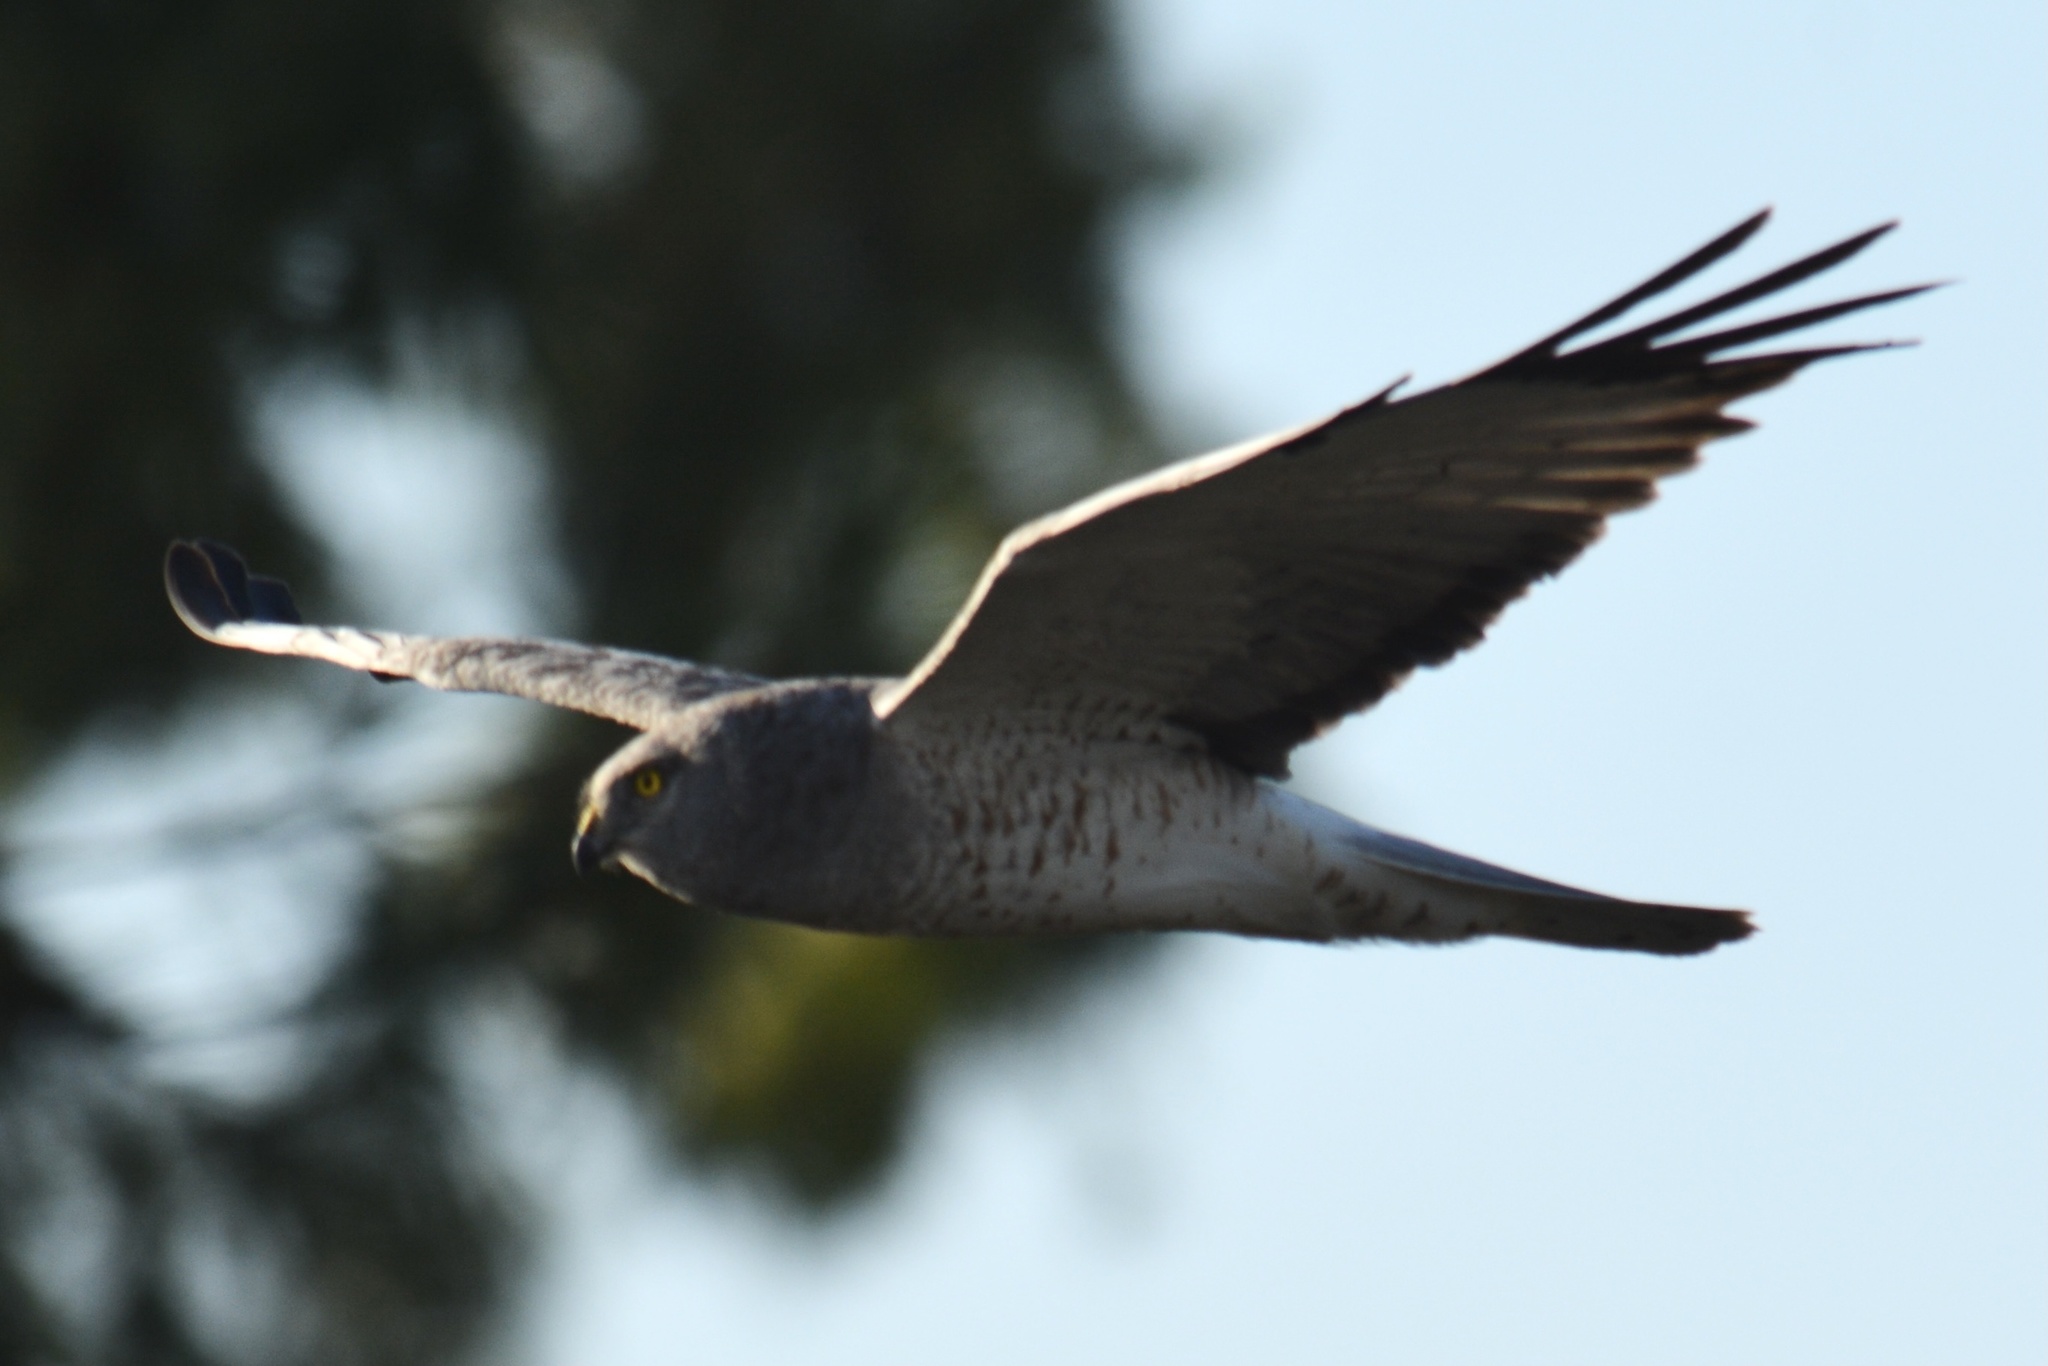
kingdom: Animalia
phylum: Chordata
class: Aves
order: Accipitriformes
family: Accipitridae
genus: Circus
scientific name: Circus cyaneus
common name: Hen harrier
